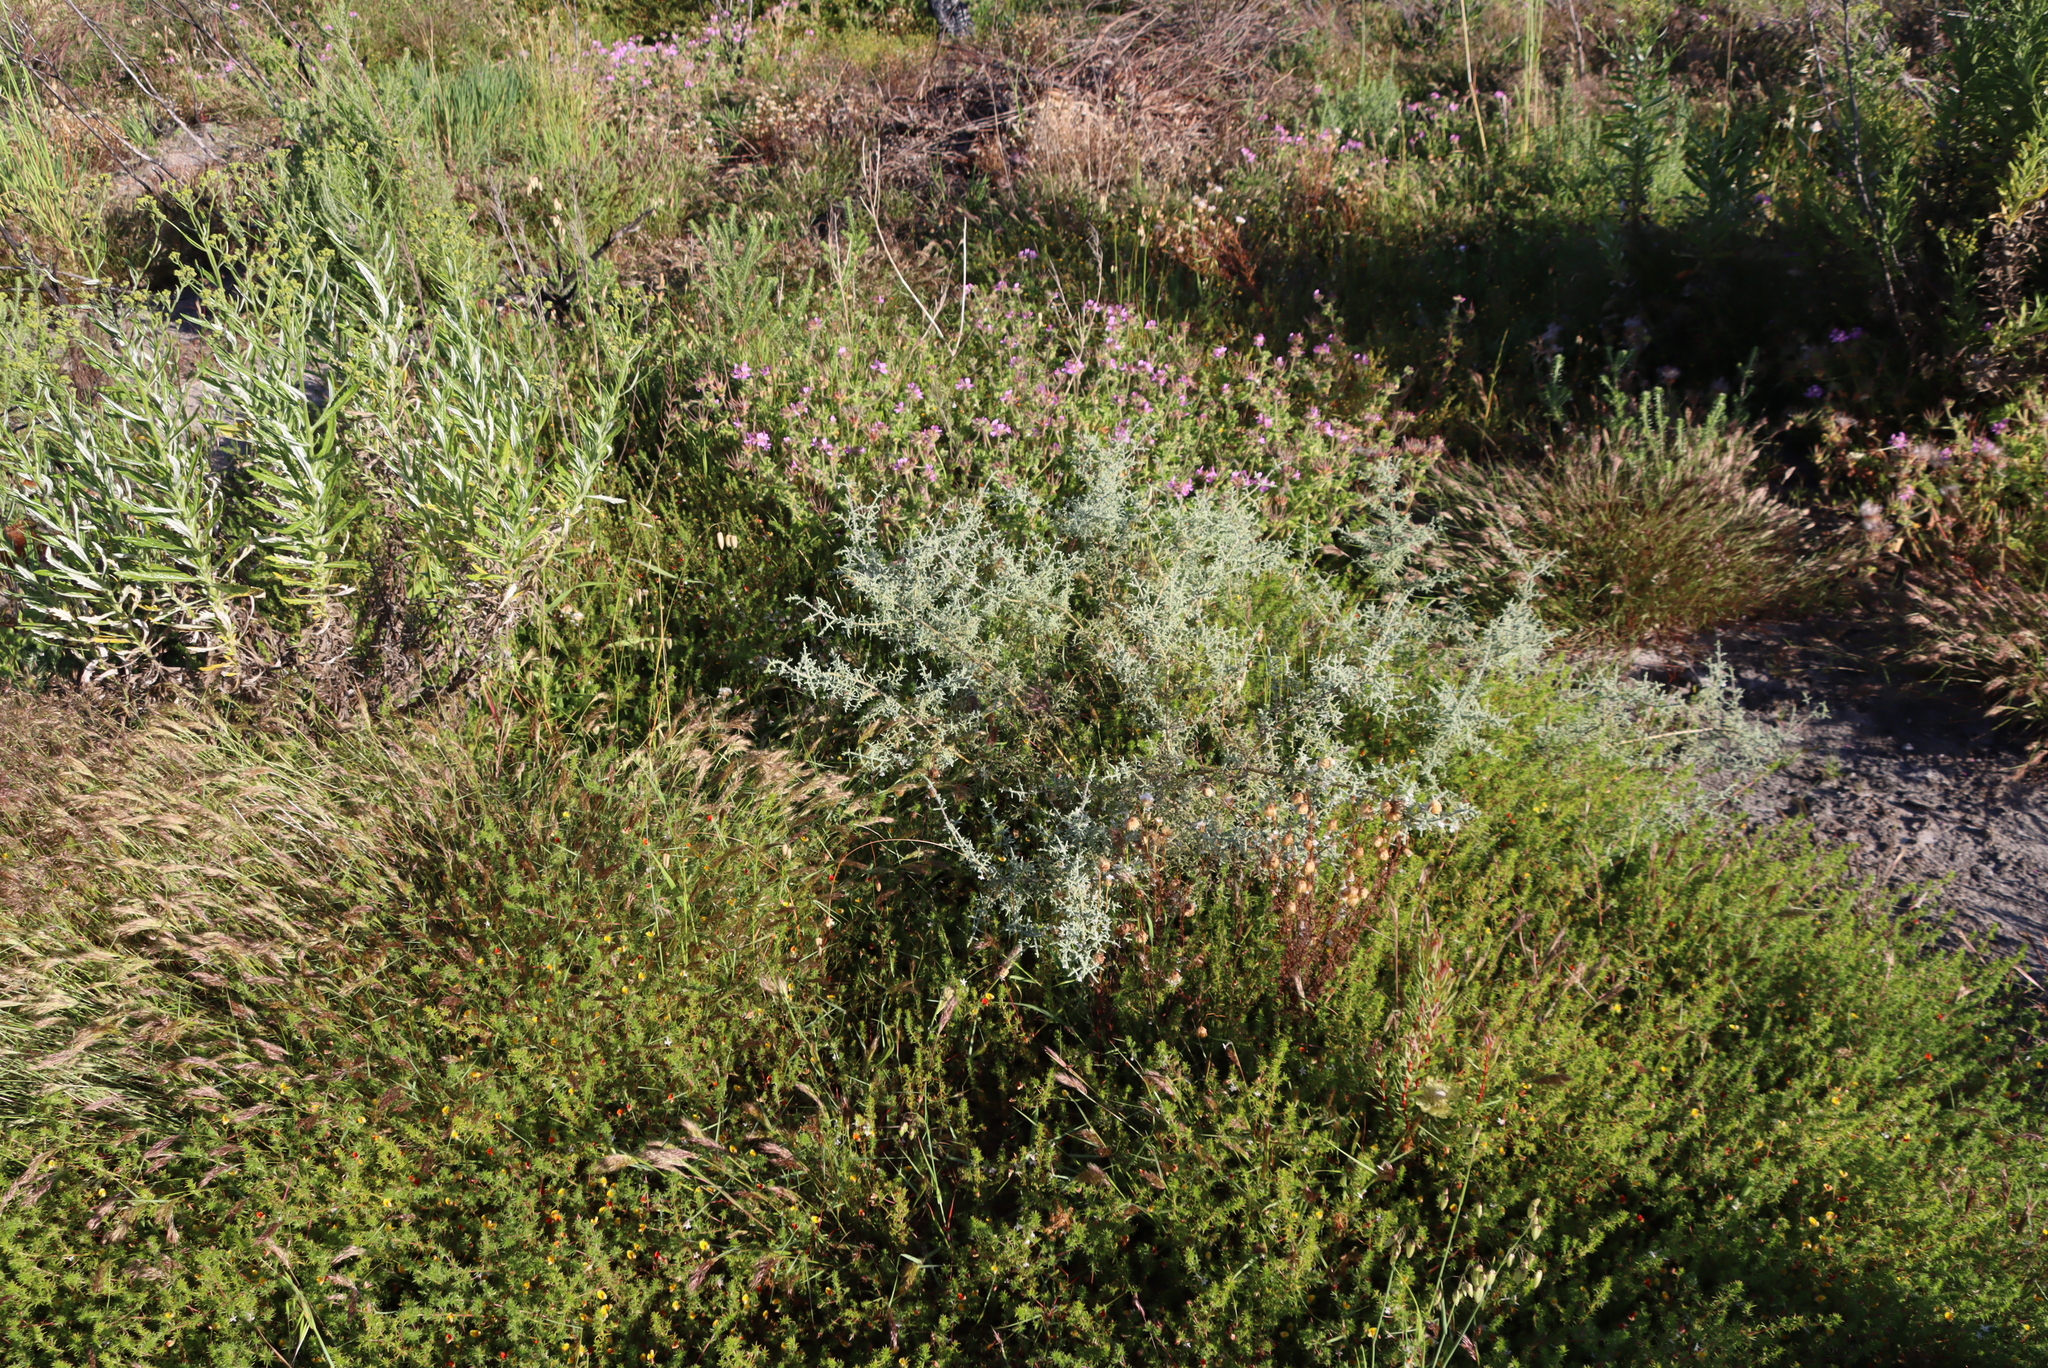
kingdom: Plantae
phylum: Tracheophyta
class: Magnoliopsida
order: Asterales
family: Asteraceae
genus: Seriphium
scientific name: Seriphium plumosum
